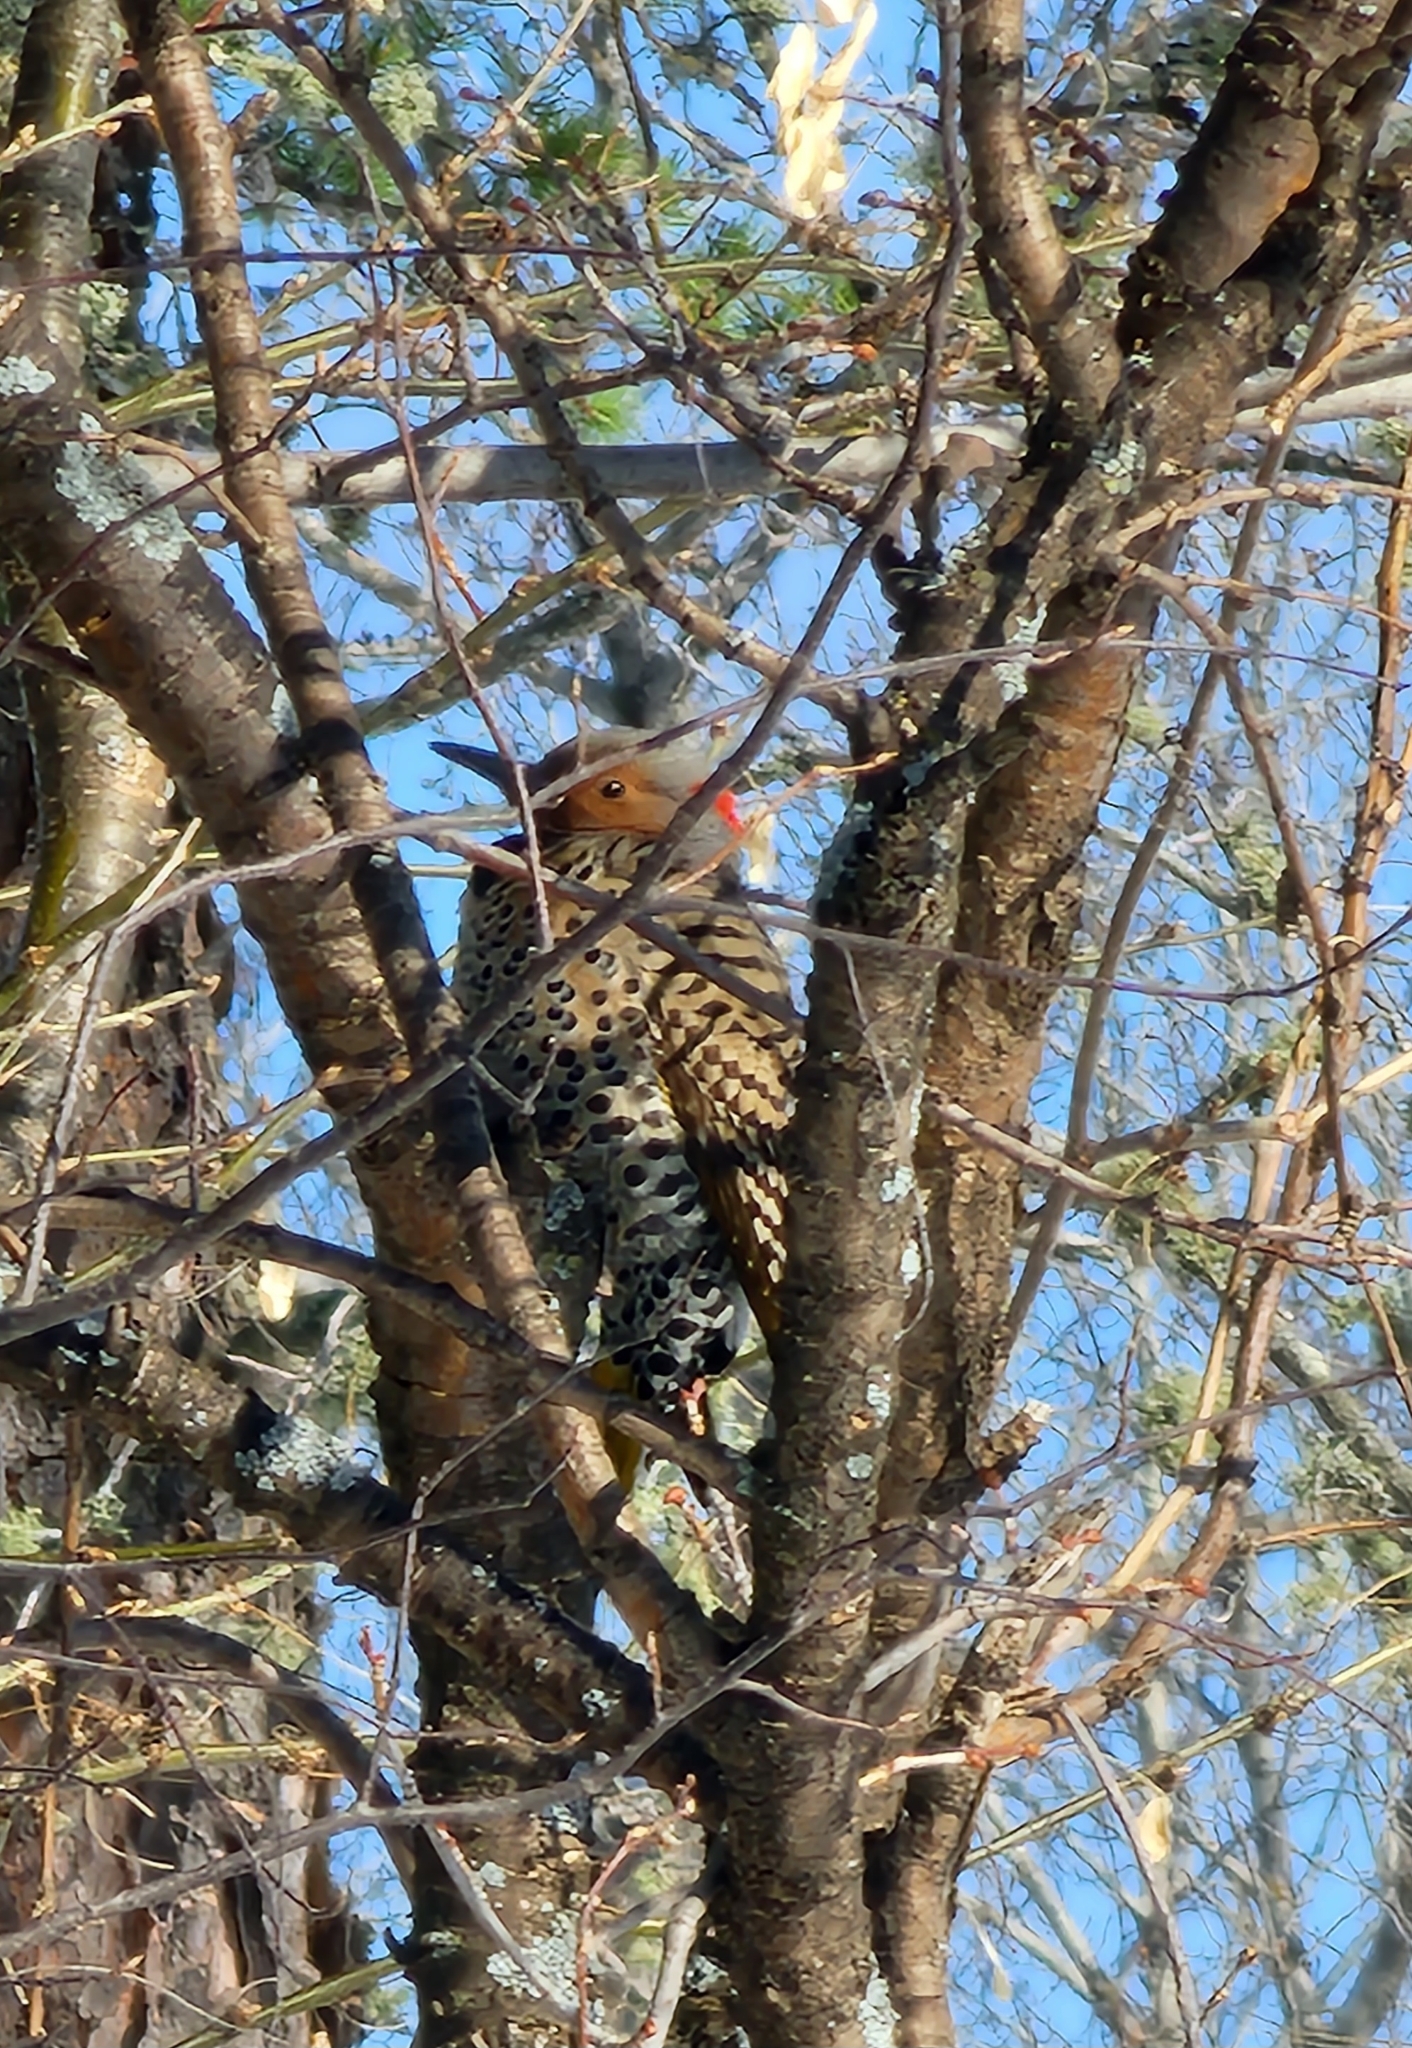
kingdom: Animalia
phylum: Chordata
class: Aves
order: Piciformes
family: Picidae
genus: Colaptes
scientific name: Colaptes auratus
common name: Northern flicker
